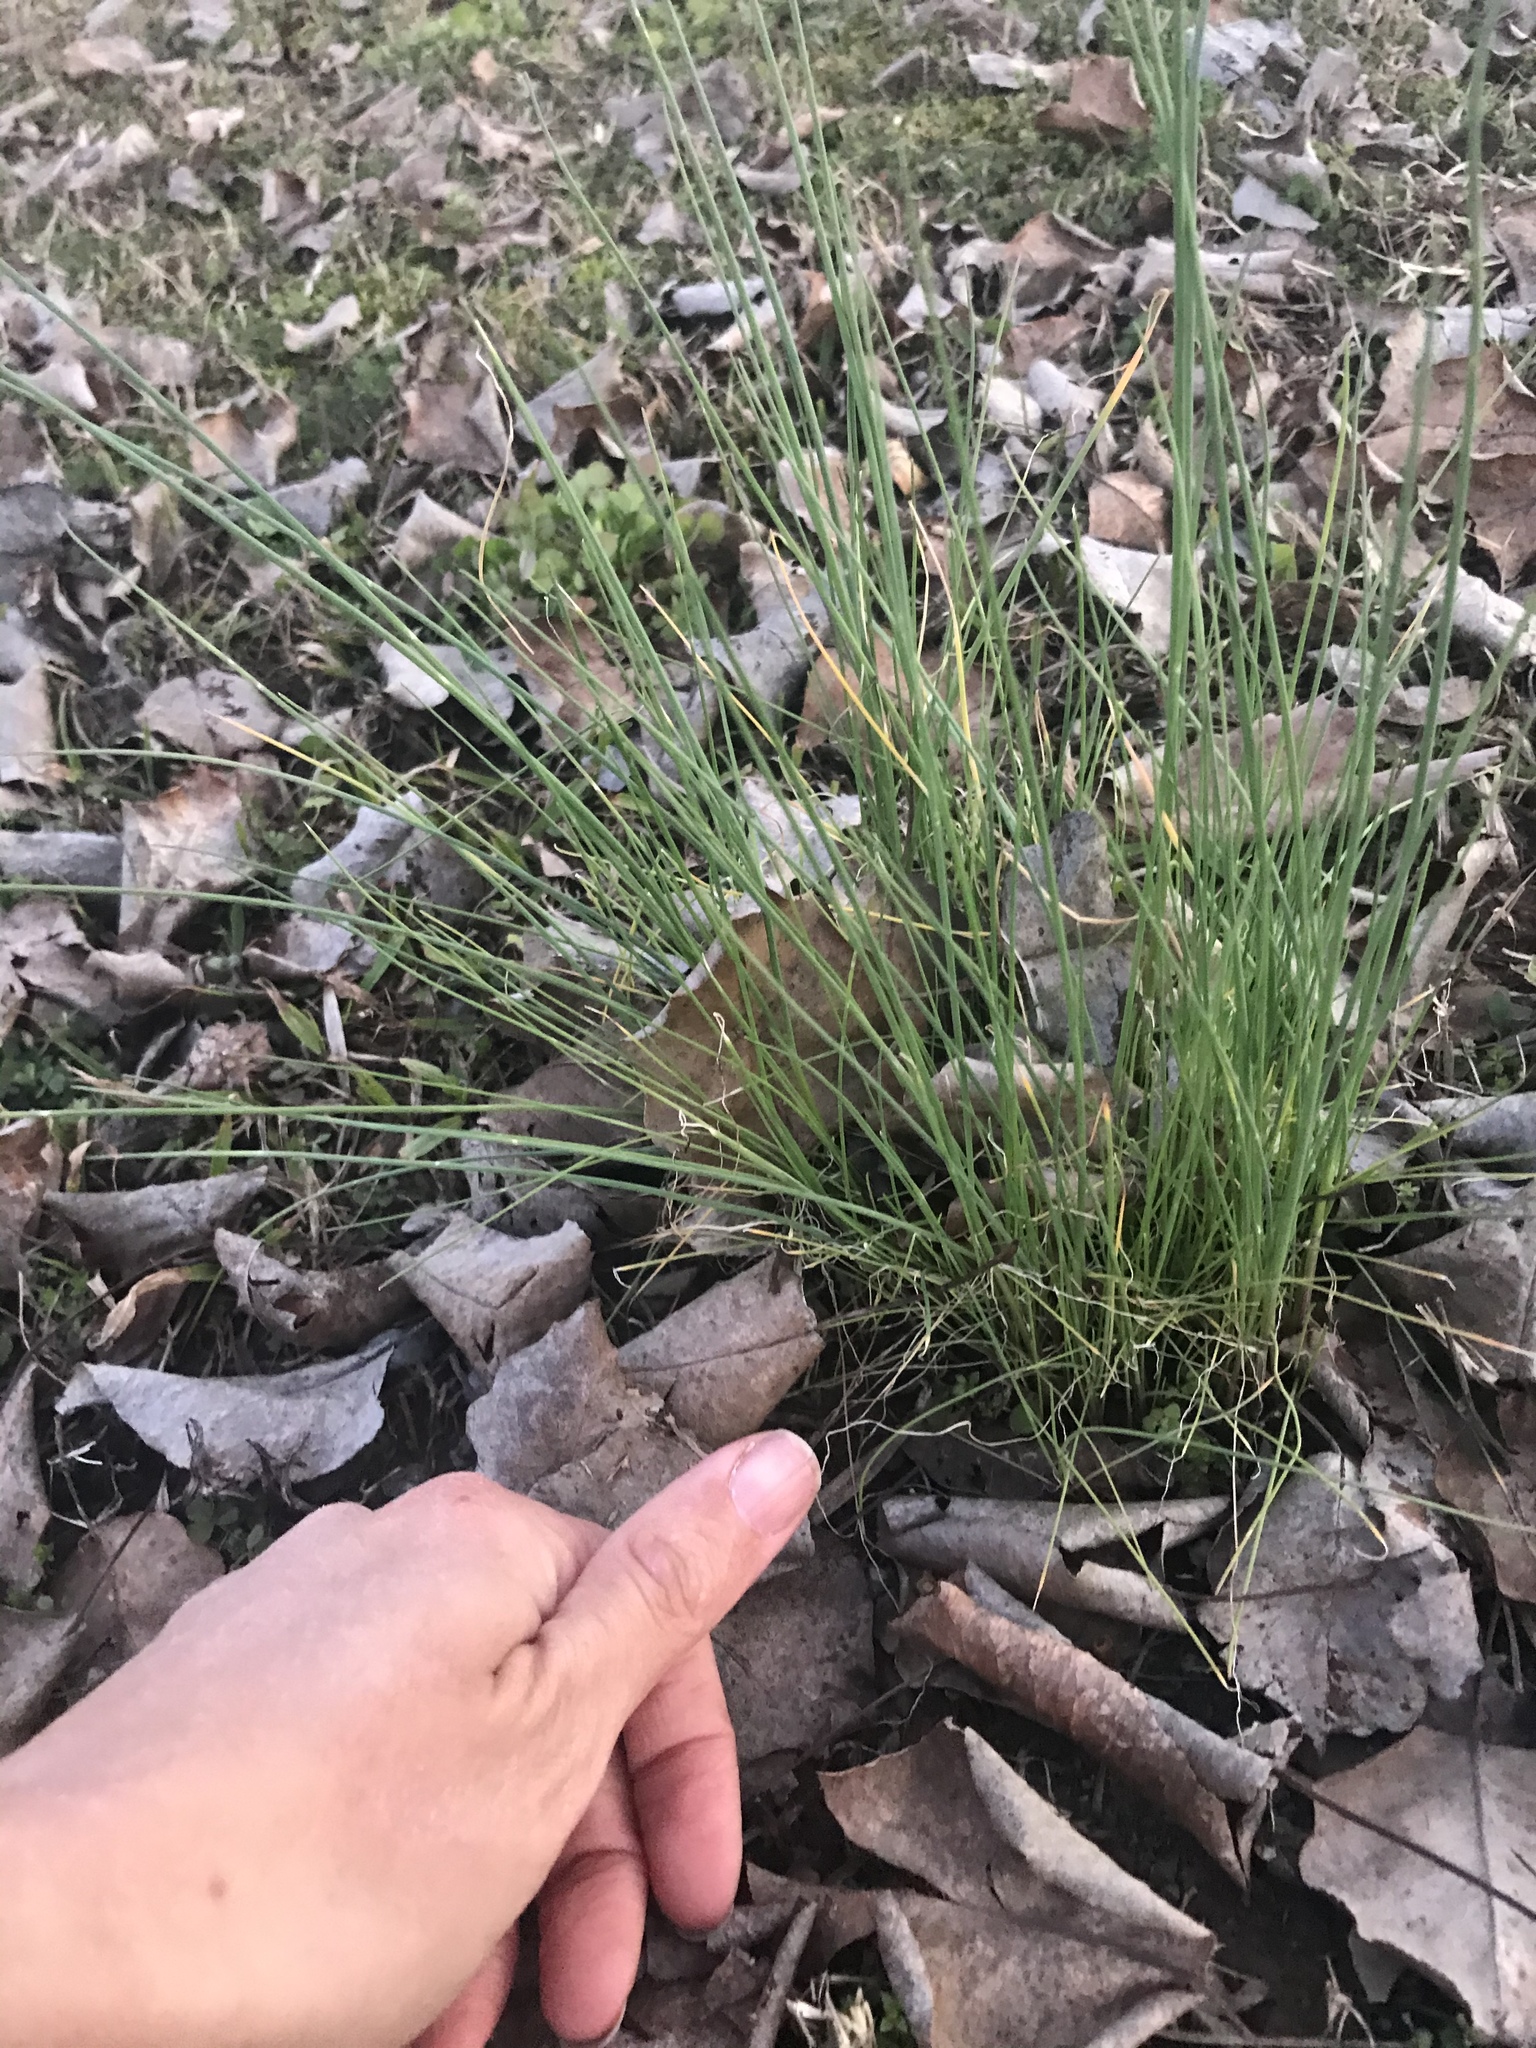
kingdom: Plantae
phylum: Tracheophyta
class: Liliopsida
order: Asparagales
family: Amaryllidaceae
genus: Allium
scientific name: Allium vineale
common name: Crow garlic
